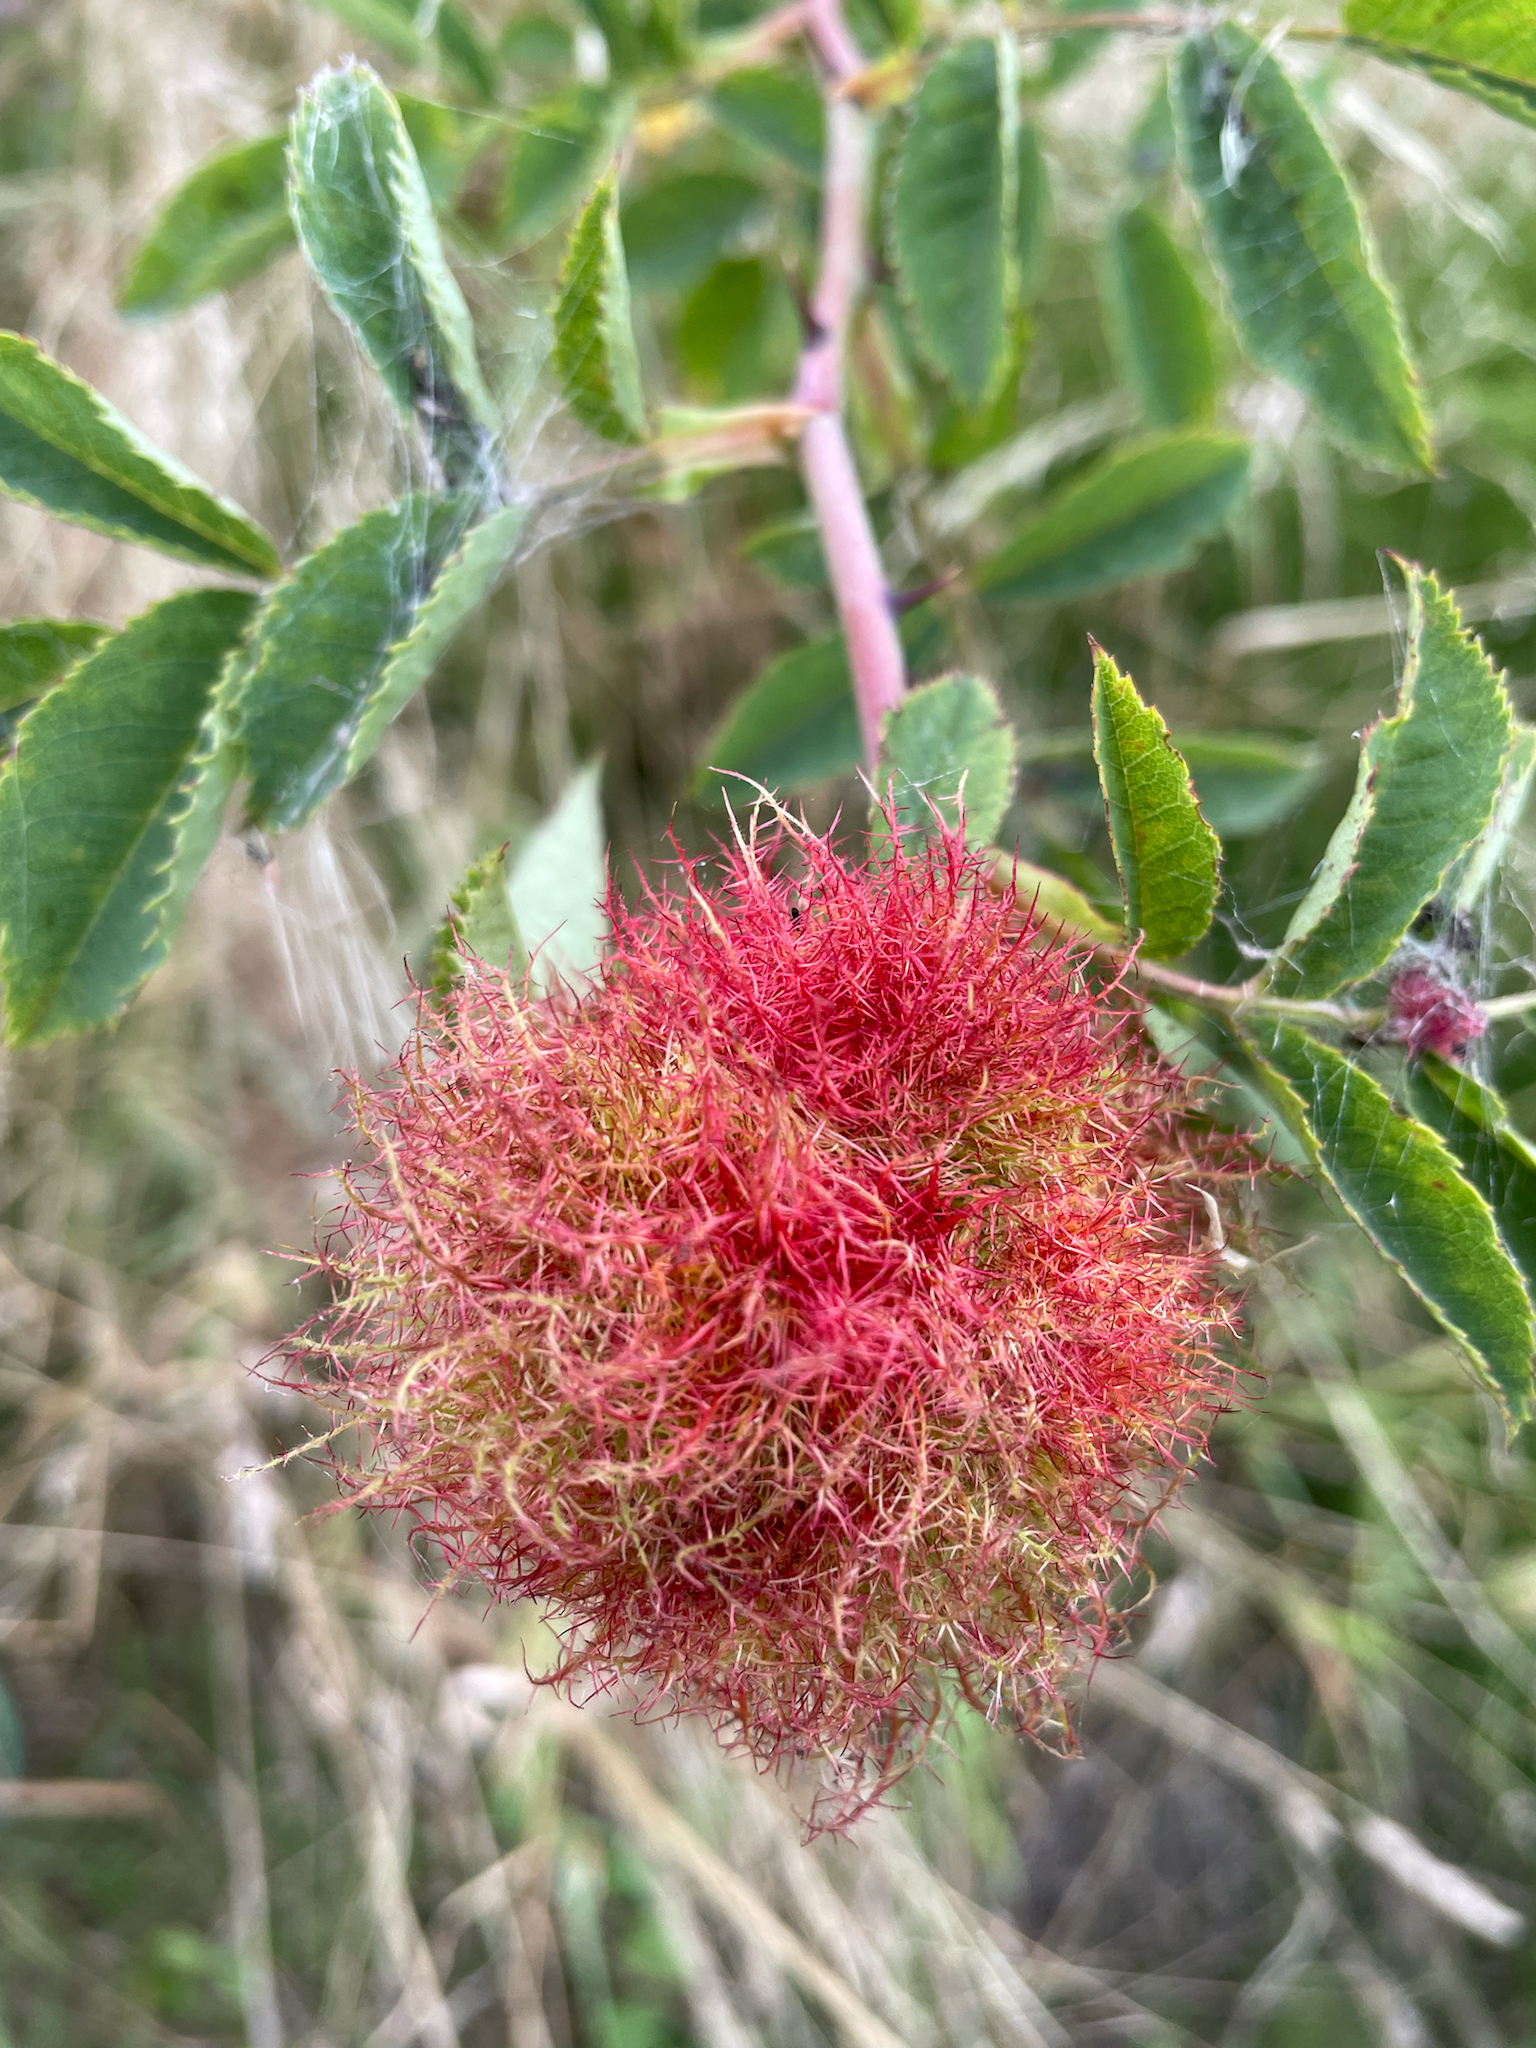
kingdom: Animalia
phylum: Arthropoda
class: Insecta
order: Hymenoptera
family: Cynipidae
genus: Diplolepis
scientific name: Diplolepis rosae
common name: Bedeguar gall
